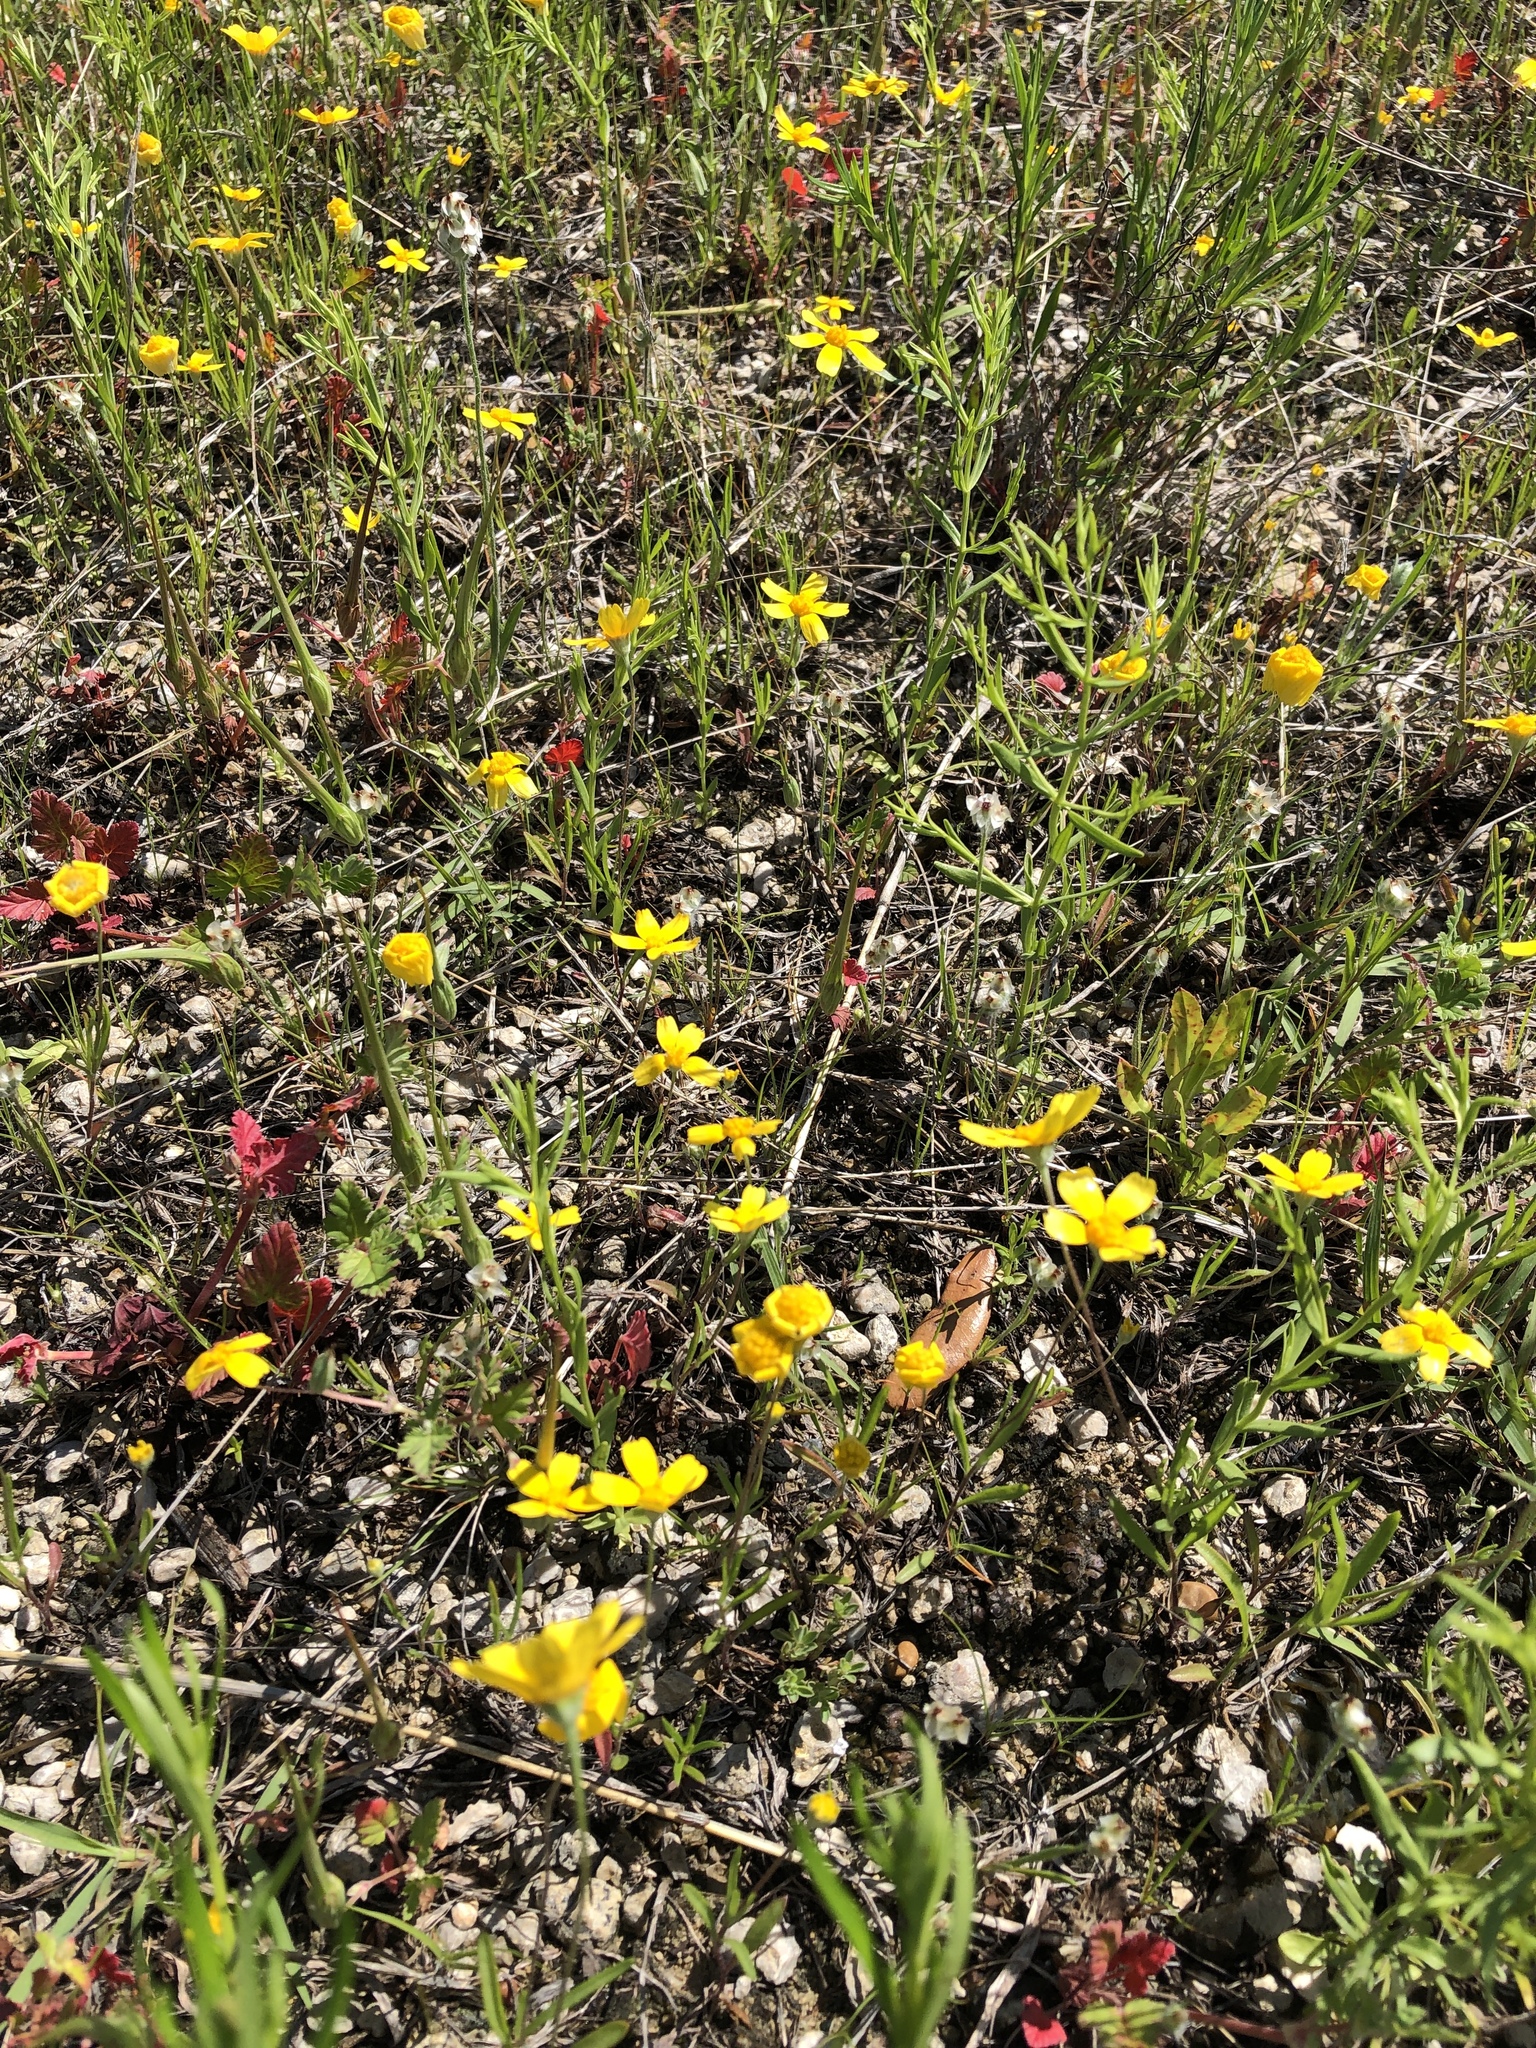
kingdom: Plantae
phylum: Tracheophyta
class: Magnoliopsida
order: Asterales
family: Asteraceae
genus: Tetraneuris
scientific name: Tetraneuris linearifolia
